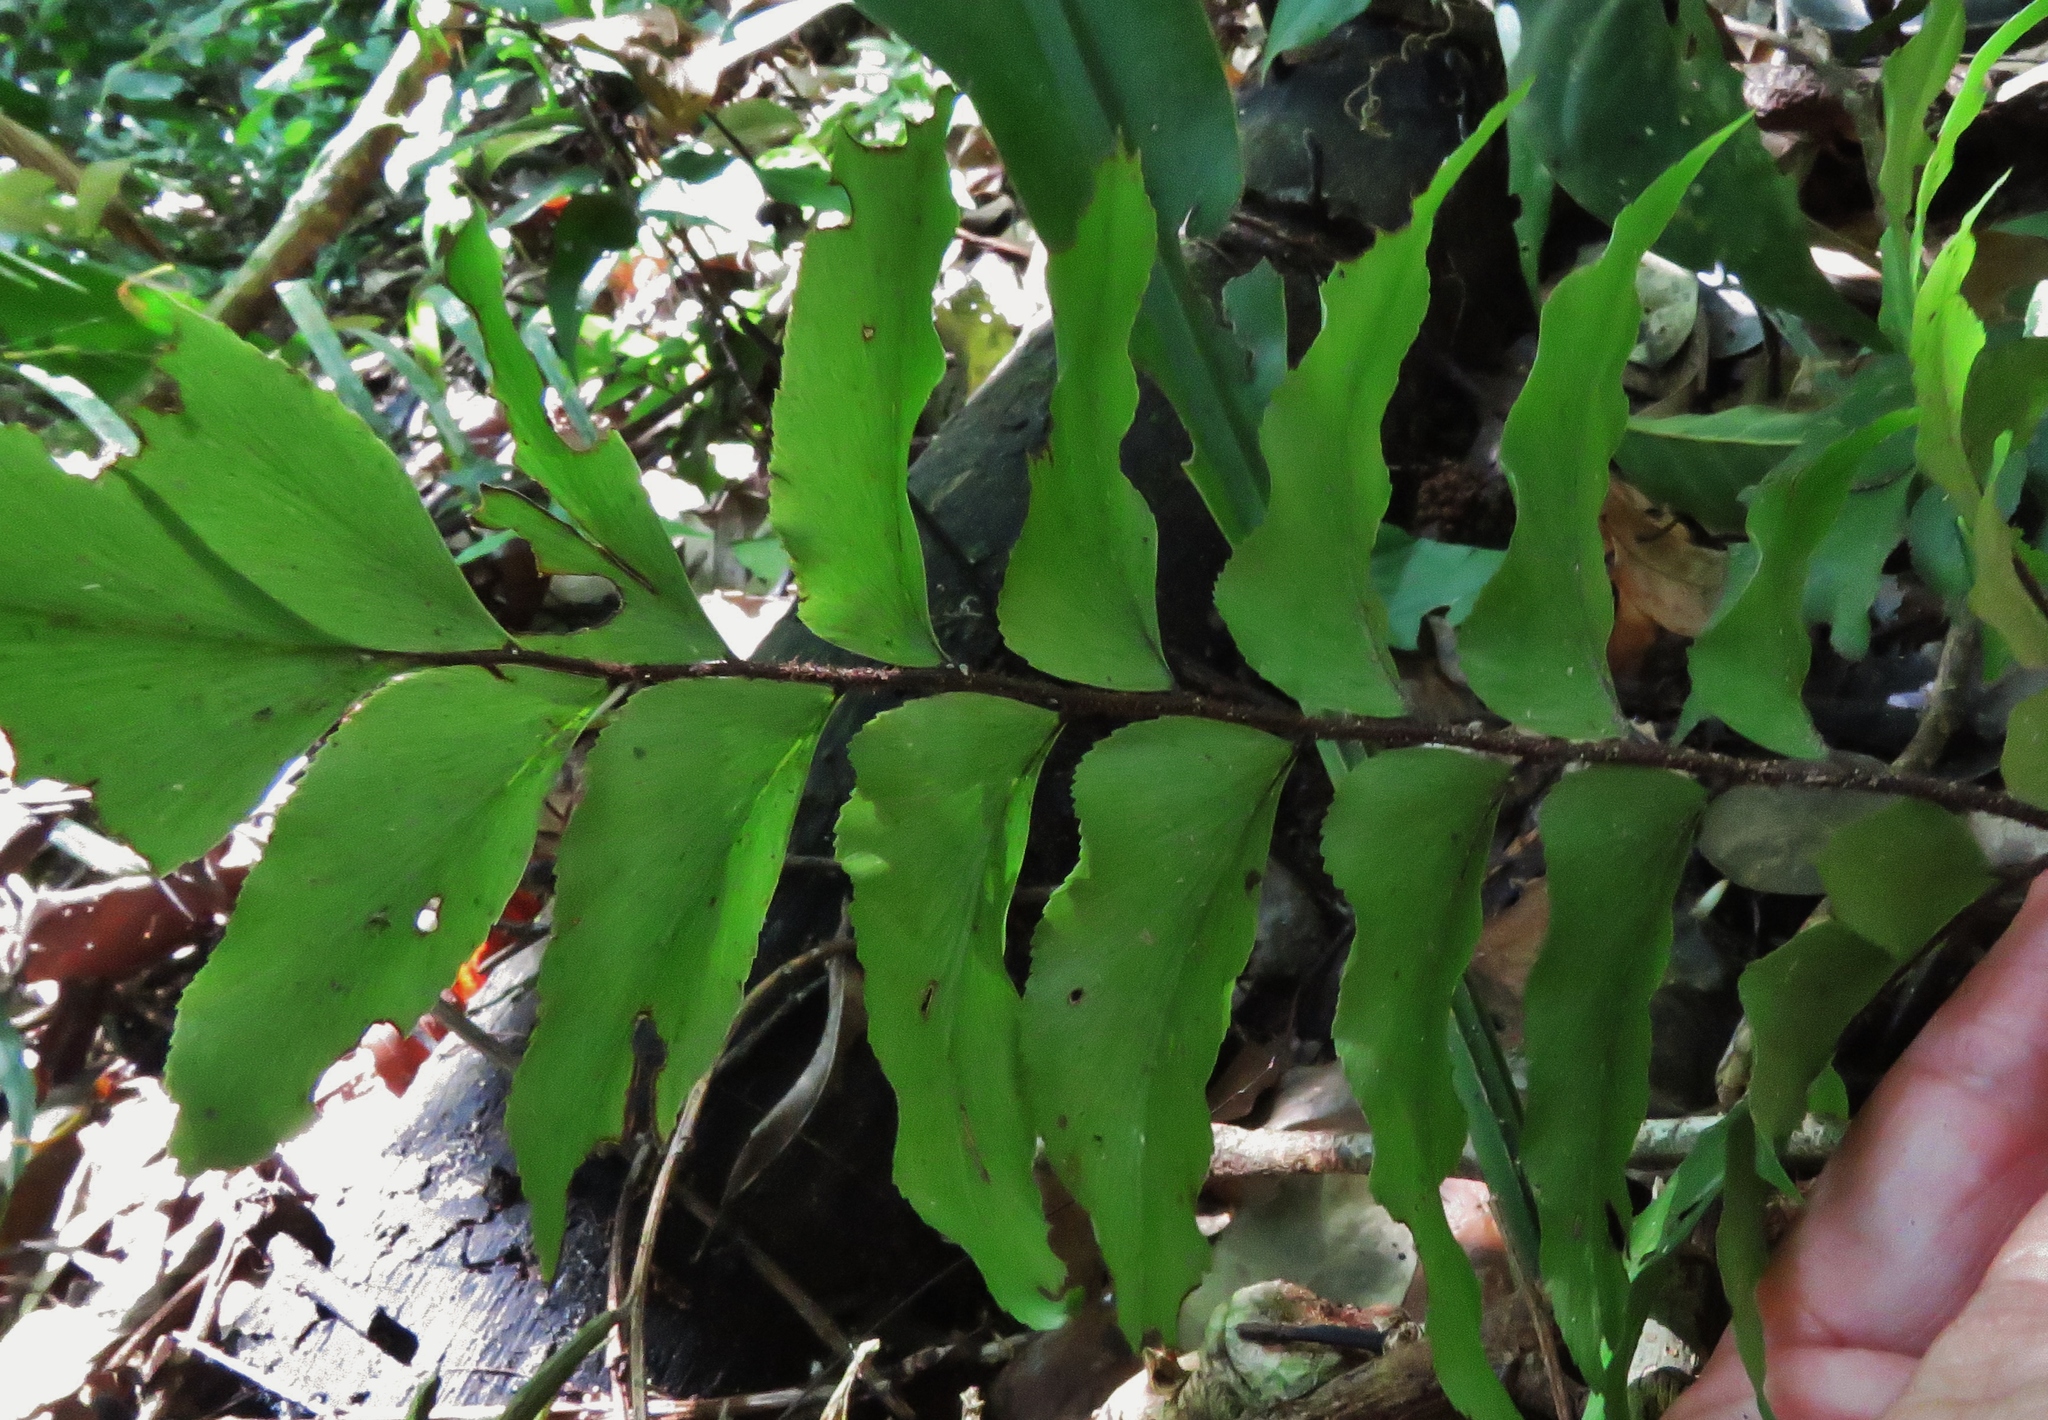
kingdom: Plantae
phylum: Tracheophyta
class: Polypodiopsida
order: Polypodiales
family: Pteridaceae
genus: Adiantum
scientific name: Adiantum argutum
